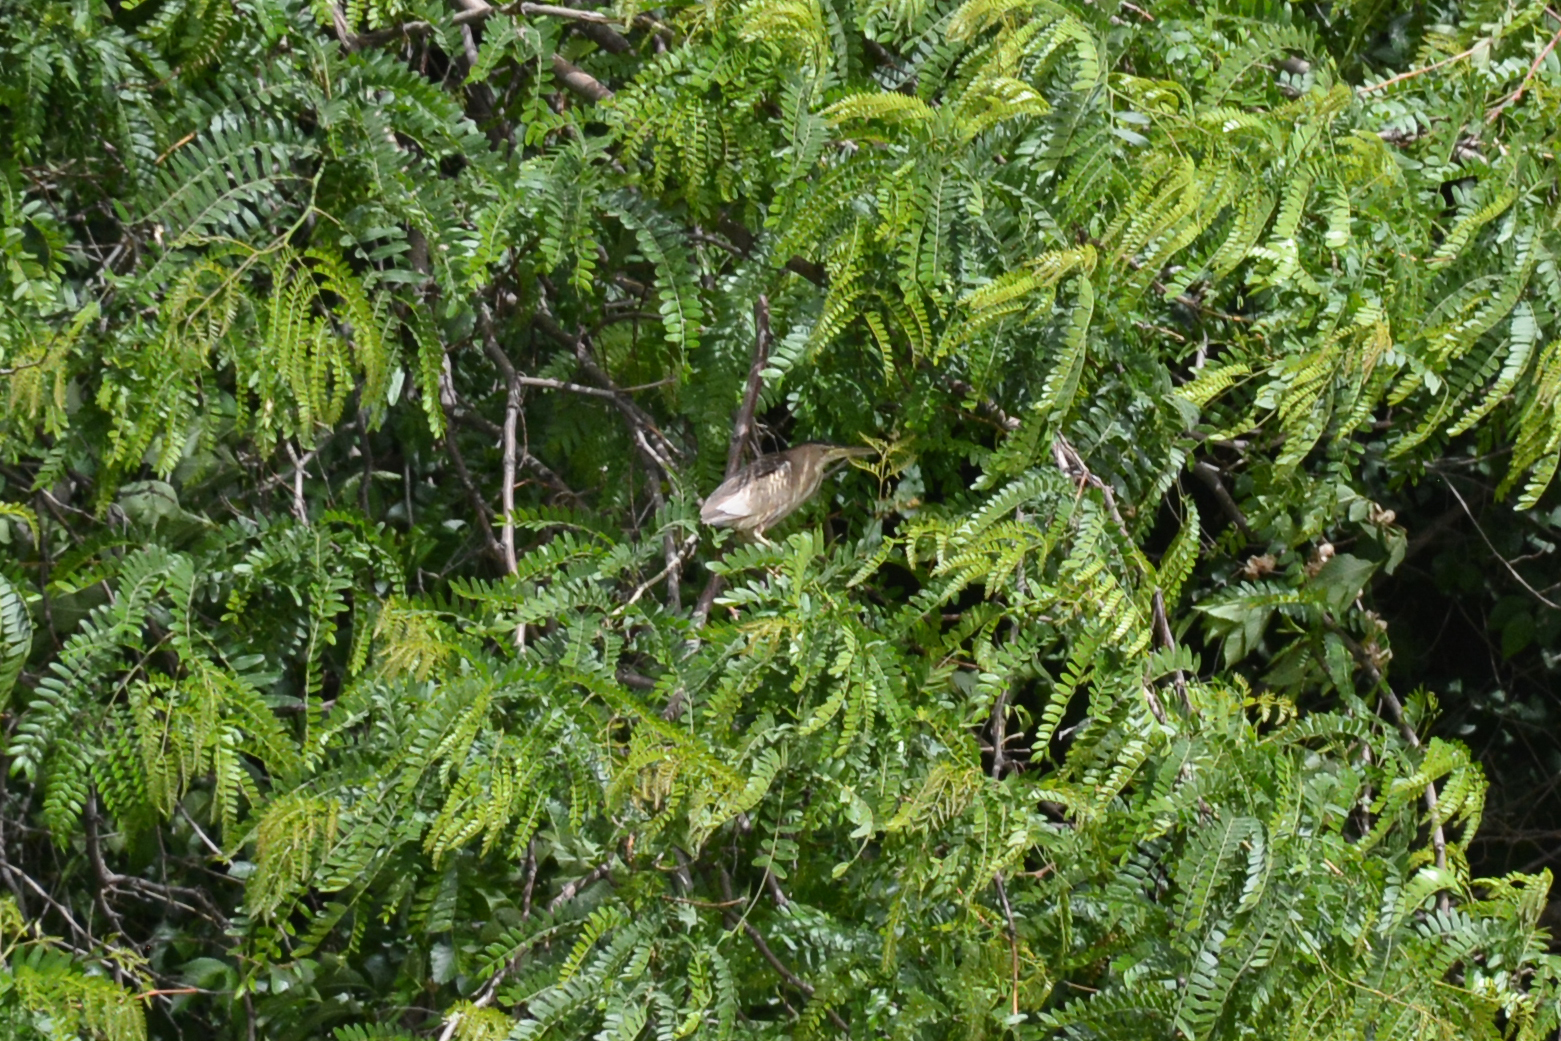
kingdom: Animalia
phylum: Chordata
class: Aves
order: Pelecaniformes
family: Ardeidae
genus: Ixobrychus
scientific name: Ixobrychus minutus
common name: Little bittern
